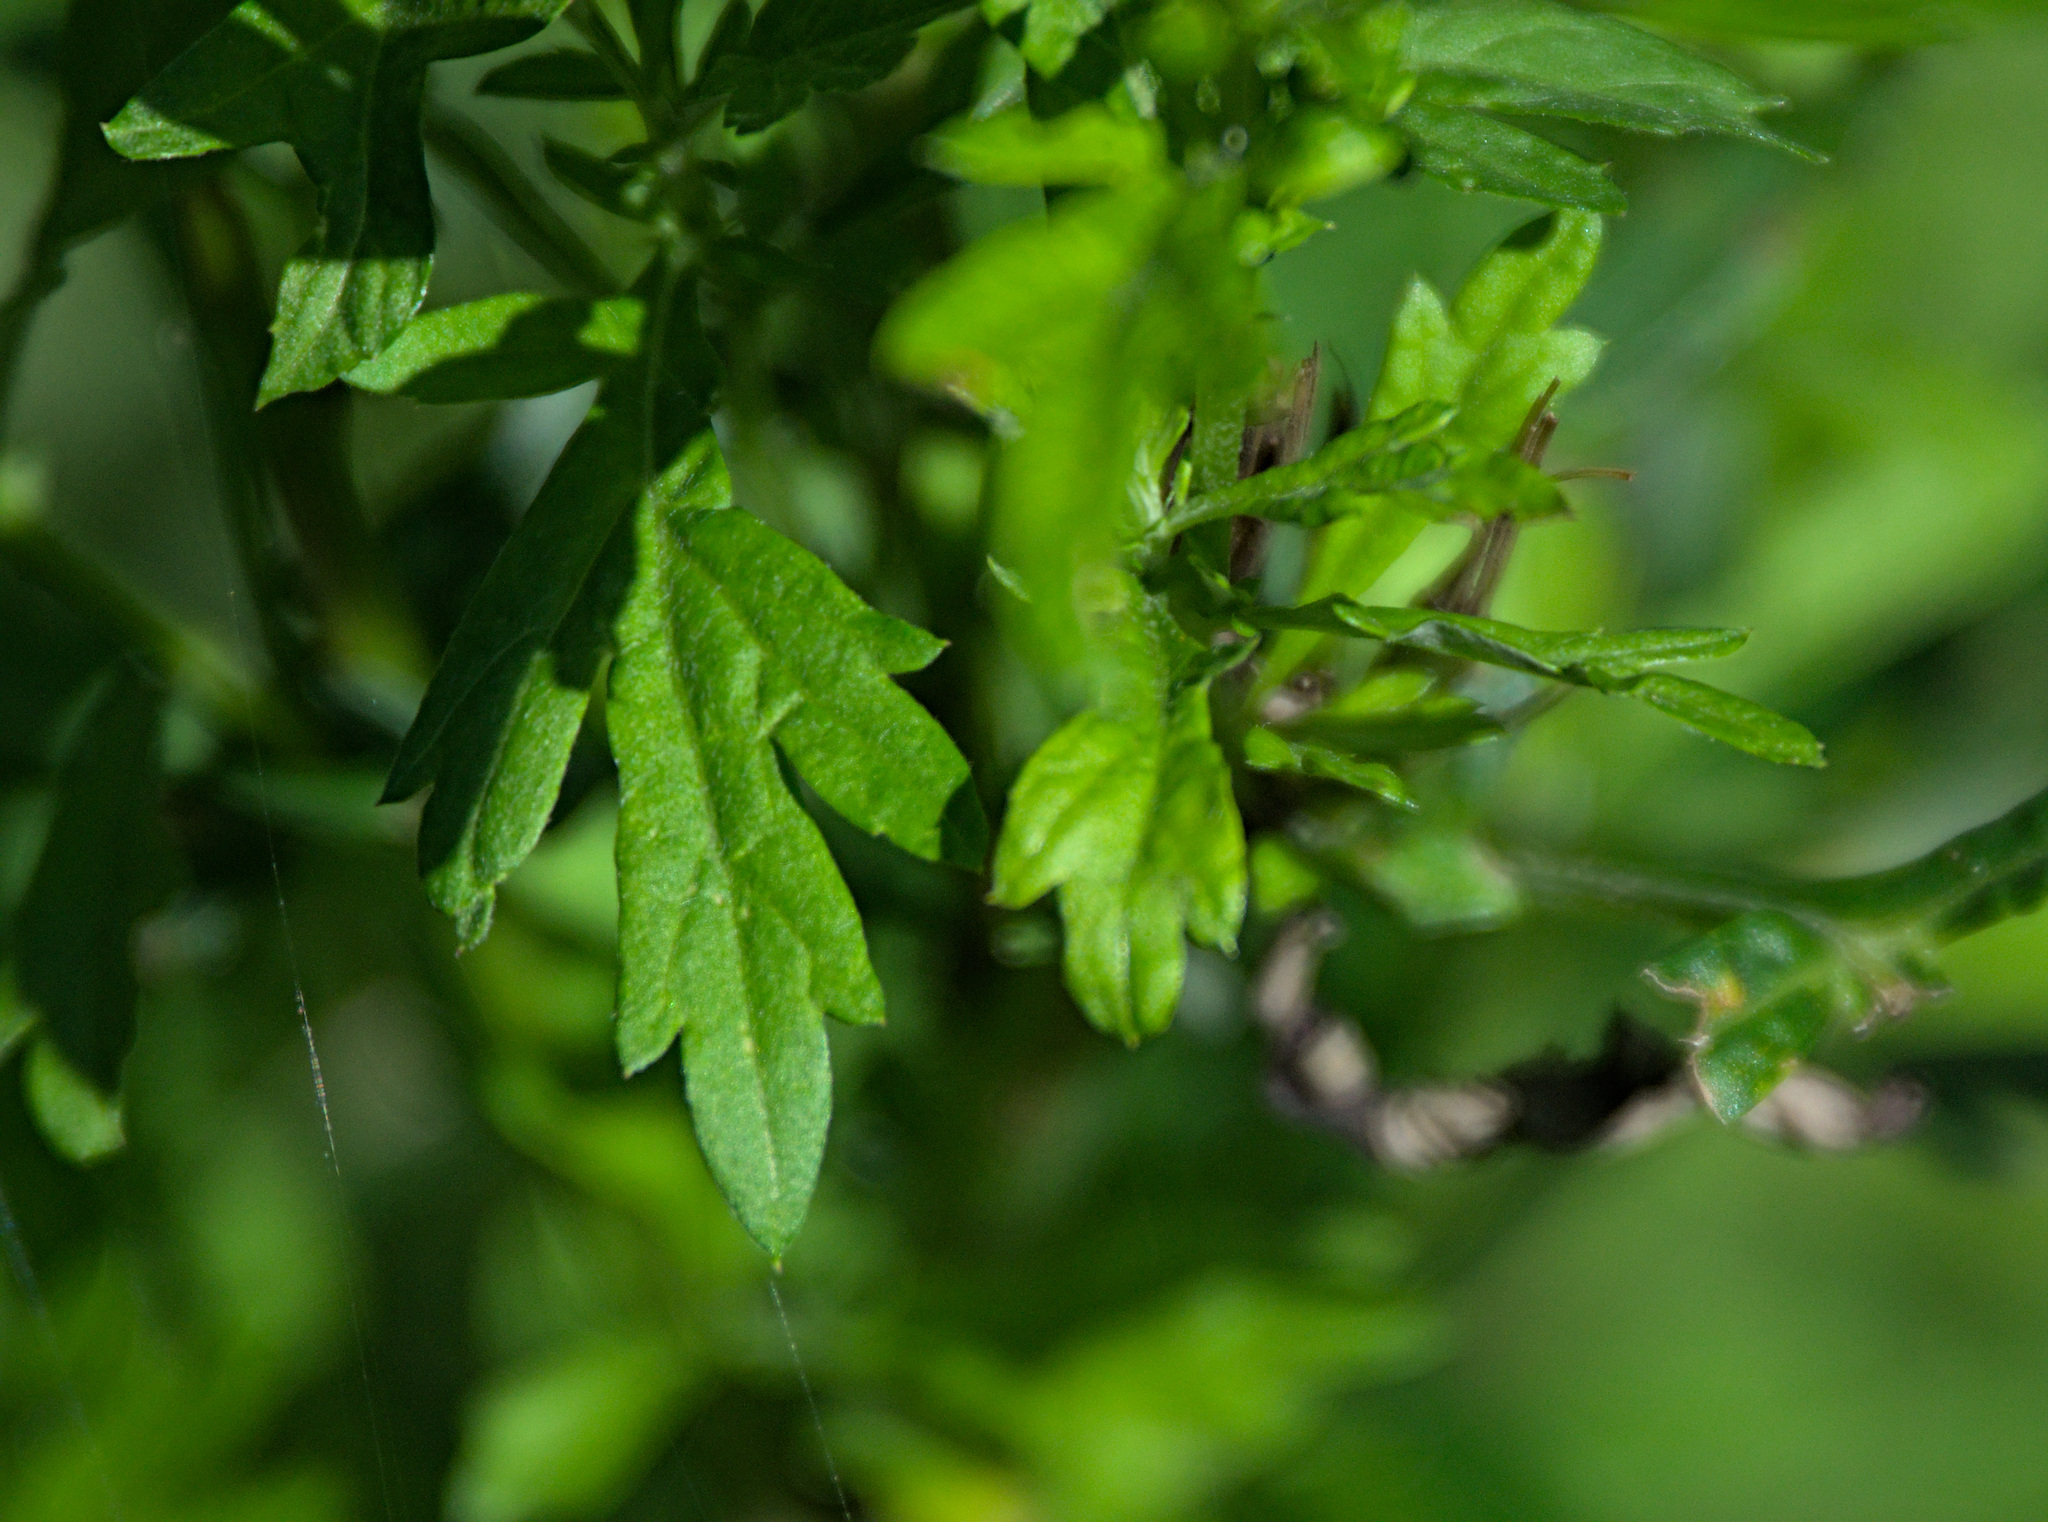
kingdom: Plantae
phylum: Tracheophyta
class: Magnoliopsida
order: Asterales
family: Asteraceae
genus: Artemisia
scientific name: Artemisia vulgaris
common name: Mugwort
